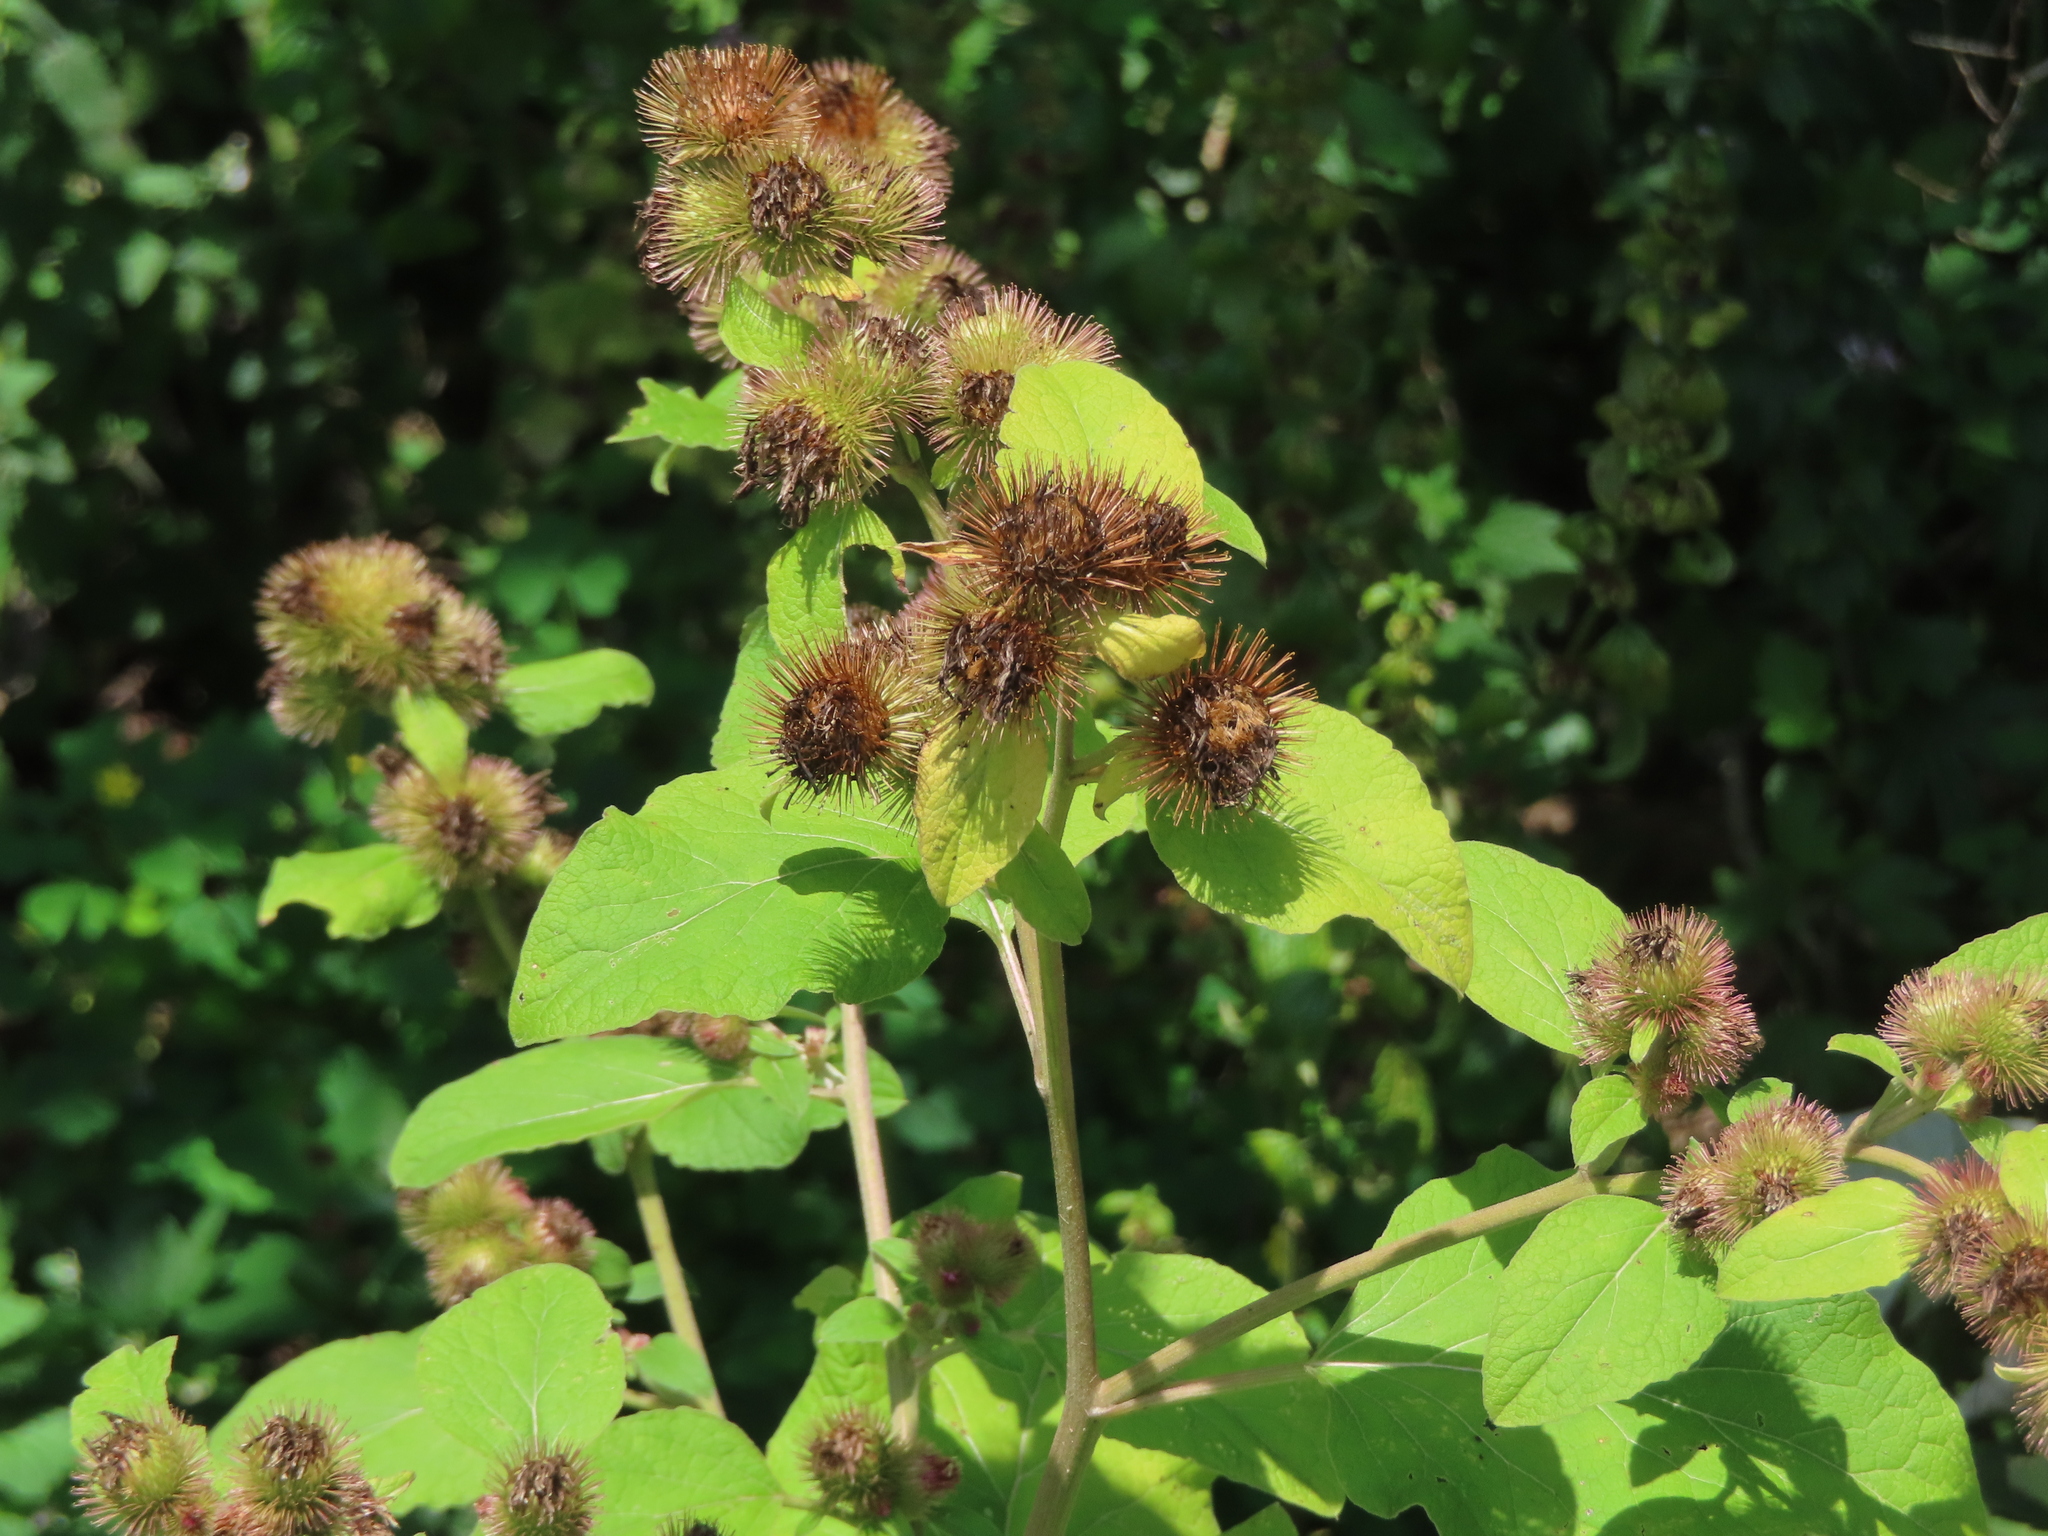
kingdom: Plantae
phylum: Tracheophyta
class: Magnoliopsida
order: Asterales
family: Asteraceae
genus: Arctium
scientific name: Arctium minus
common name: Lesser burdock
